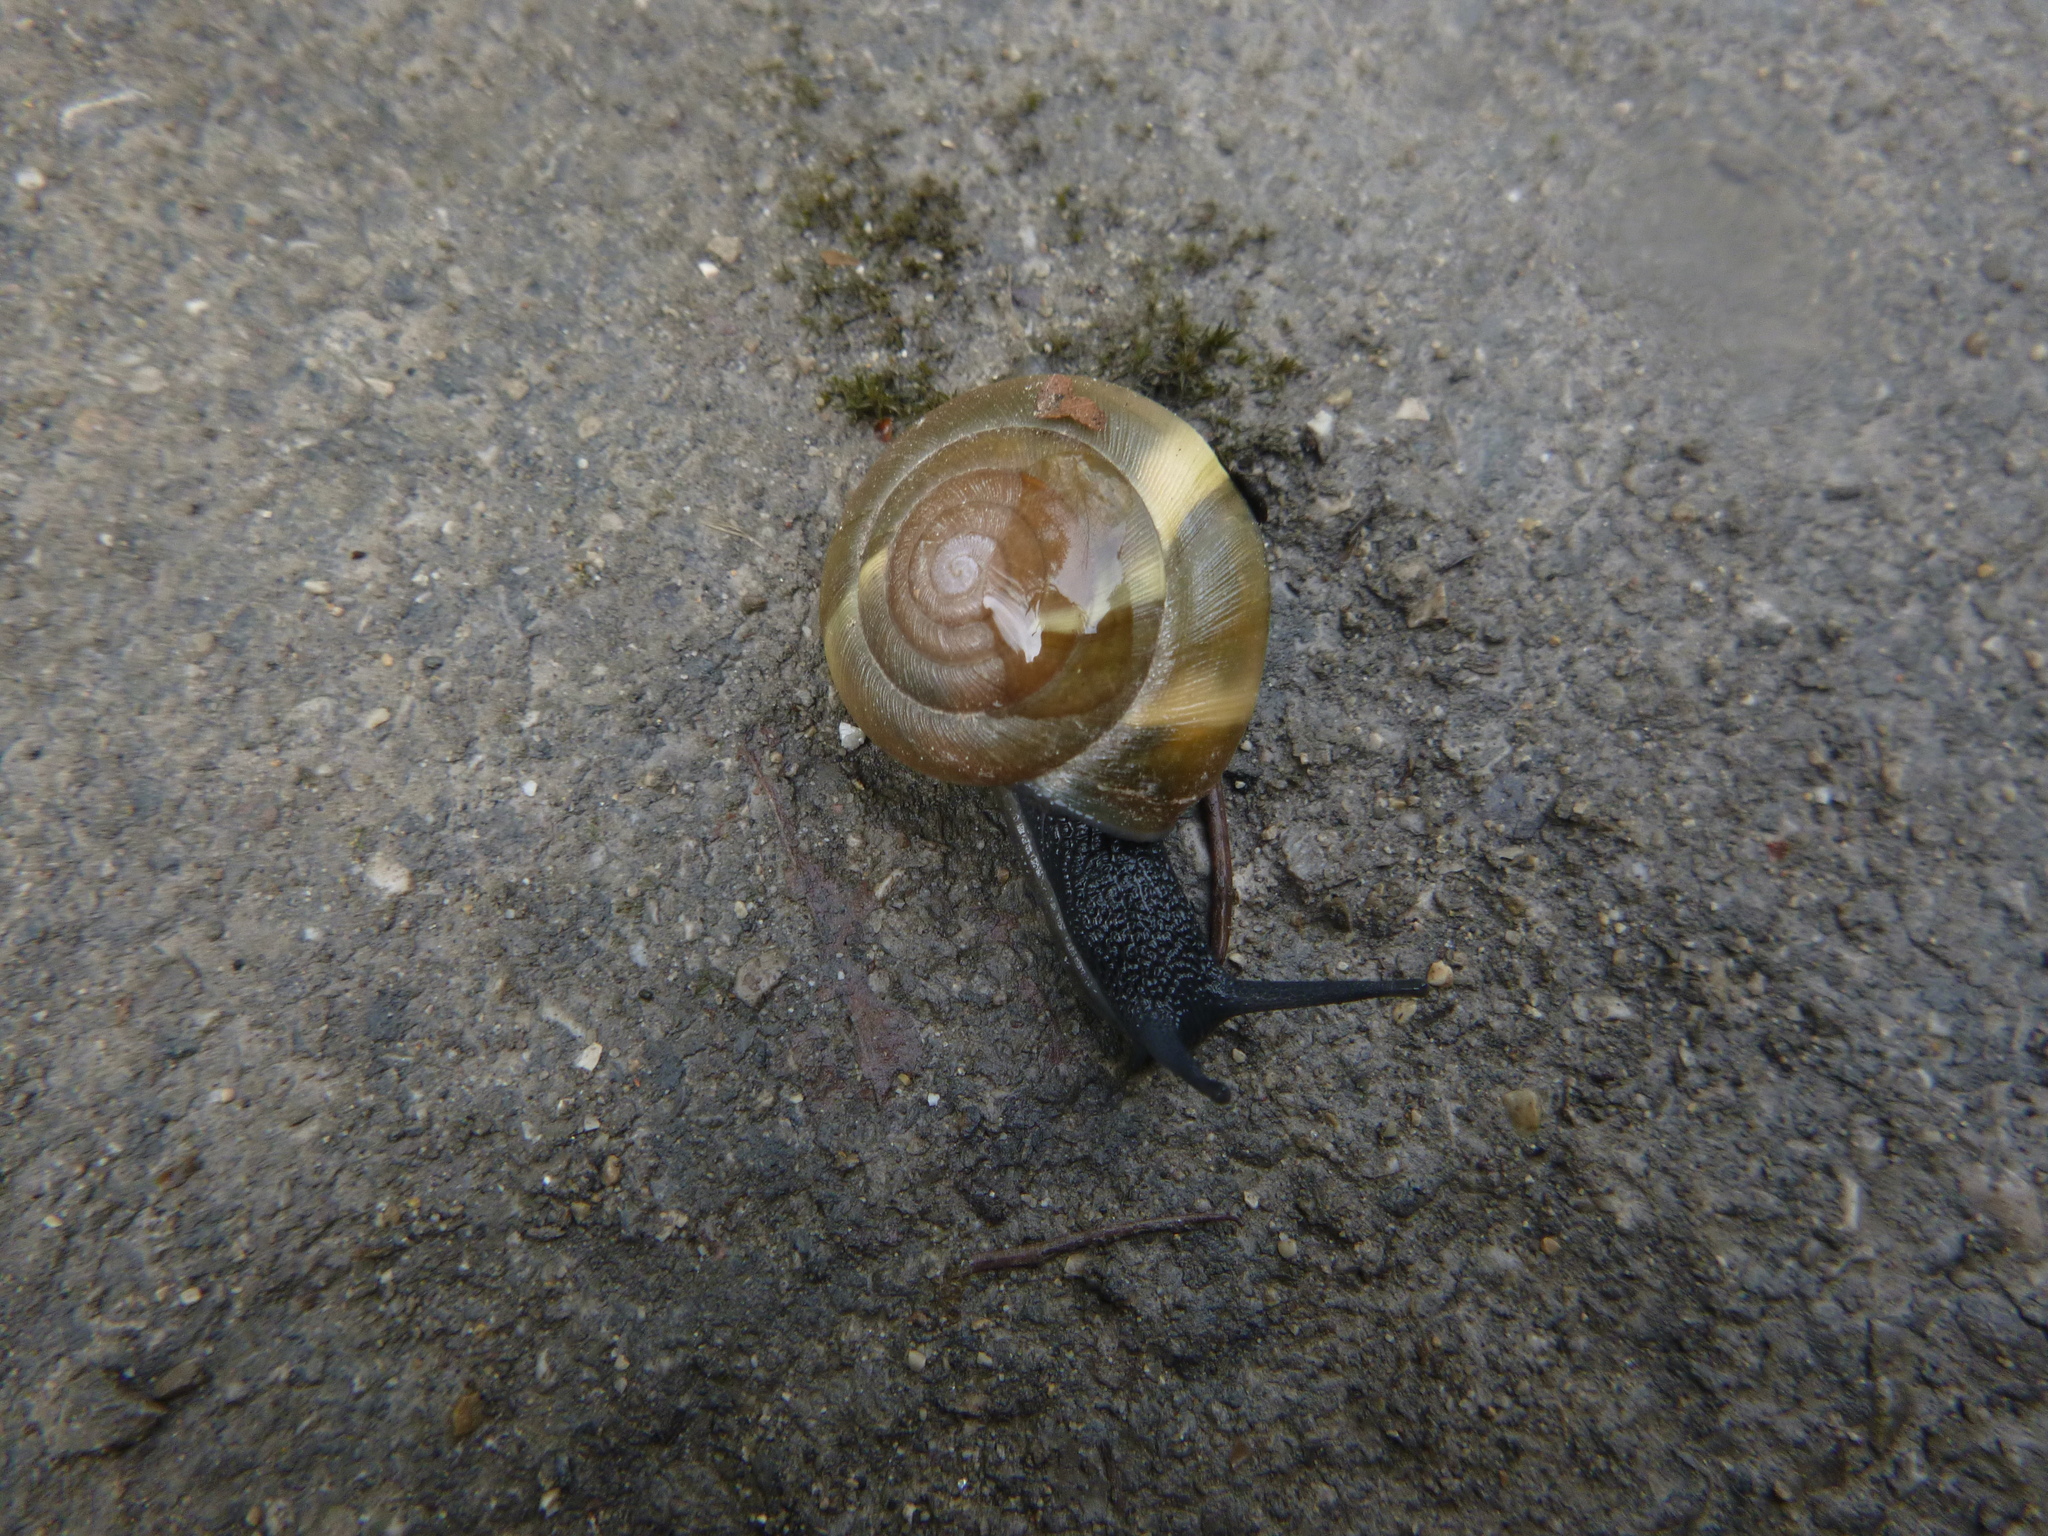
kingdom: Animalia
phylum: Mollusca
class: Gastropoda
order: Stylommatophora
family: Zonitidae
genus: Aegopis
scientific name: Aegopis verticillus
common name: Giant glass snail
